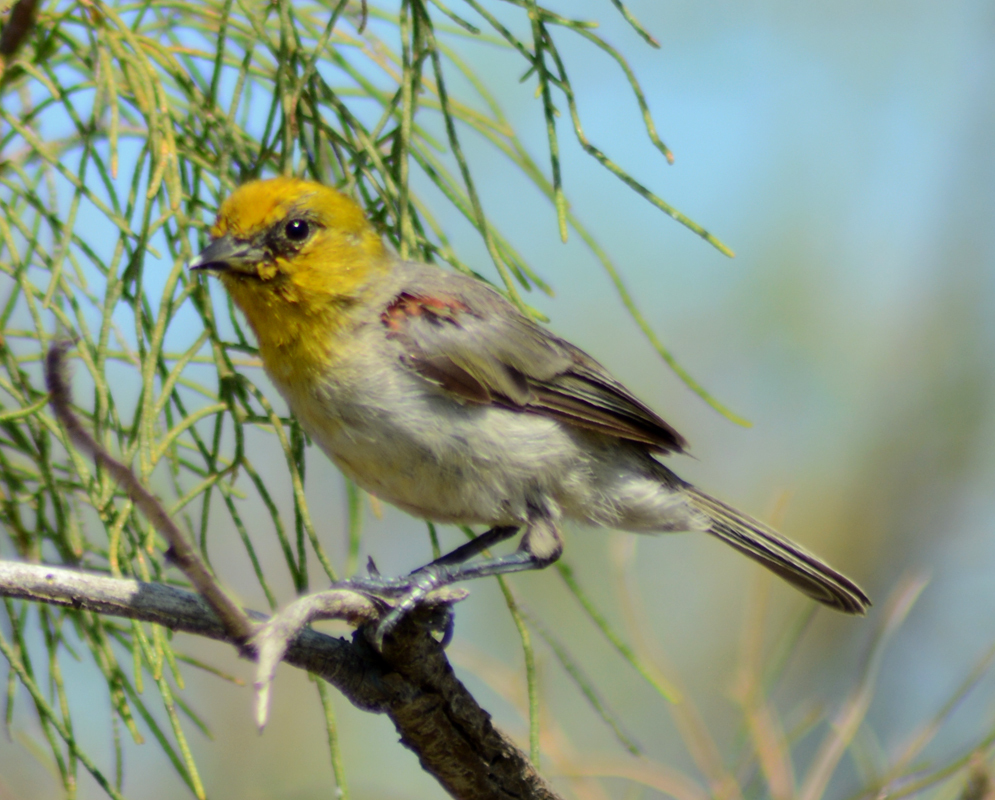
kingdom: Animalia
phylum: Chordata
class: Aves
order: Passeriformes
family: Remizidae
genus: Auriparus
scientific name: Auriparus flaviceps
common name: Verdin
